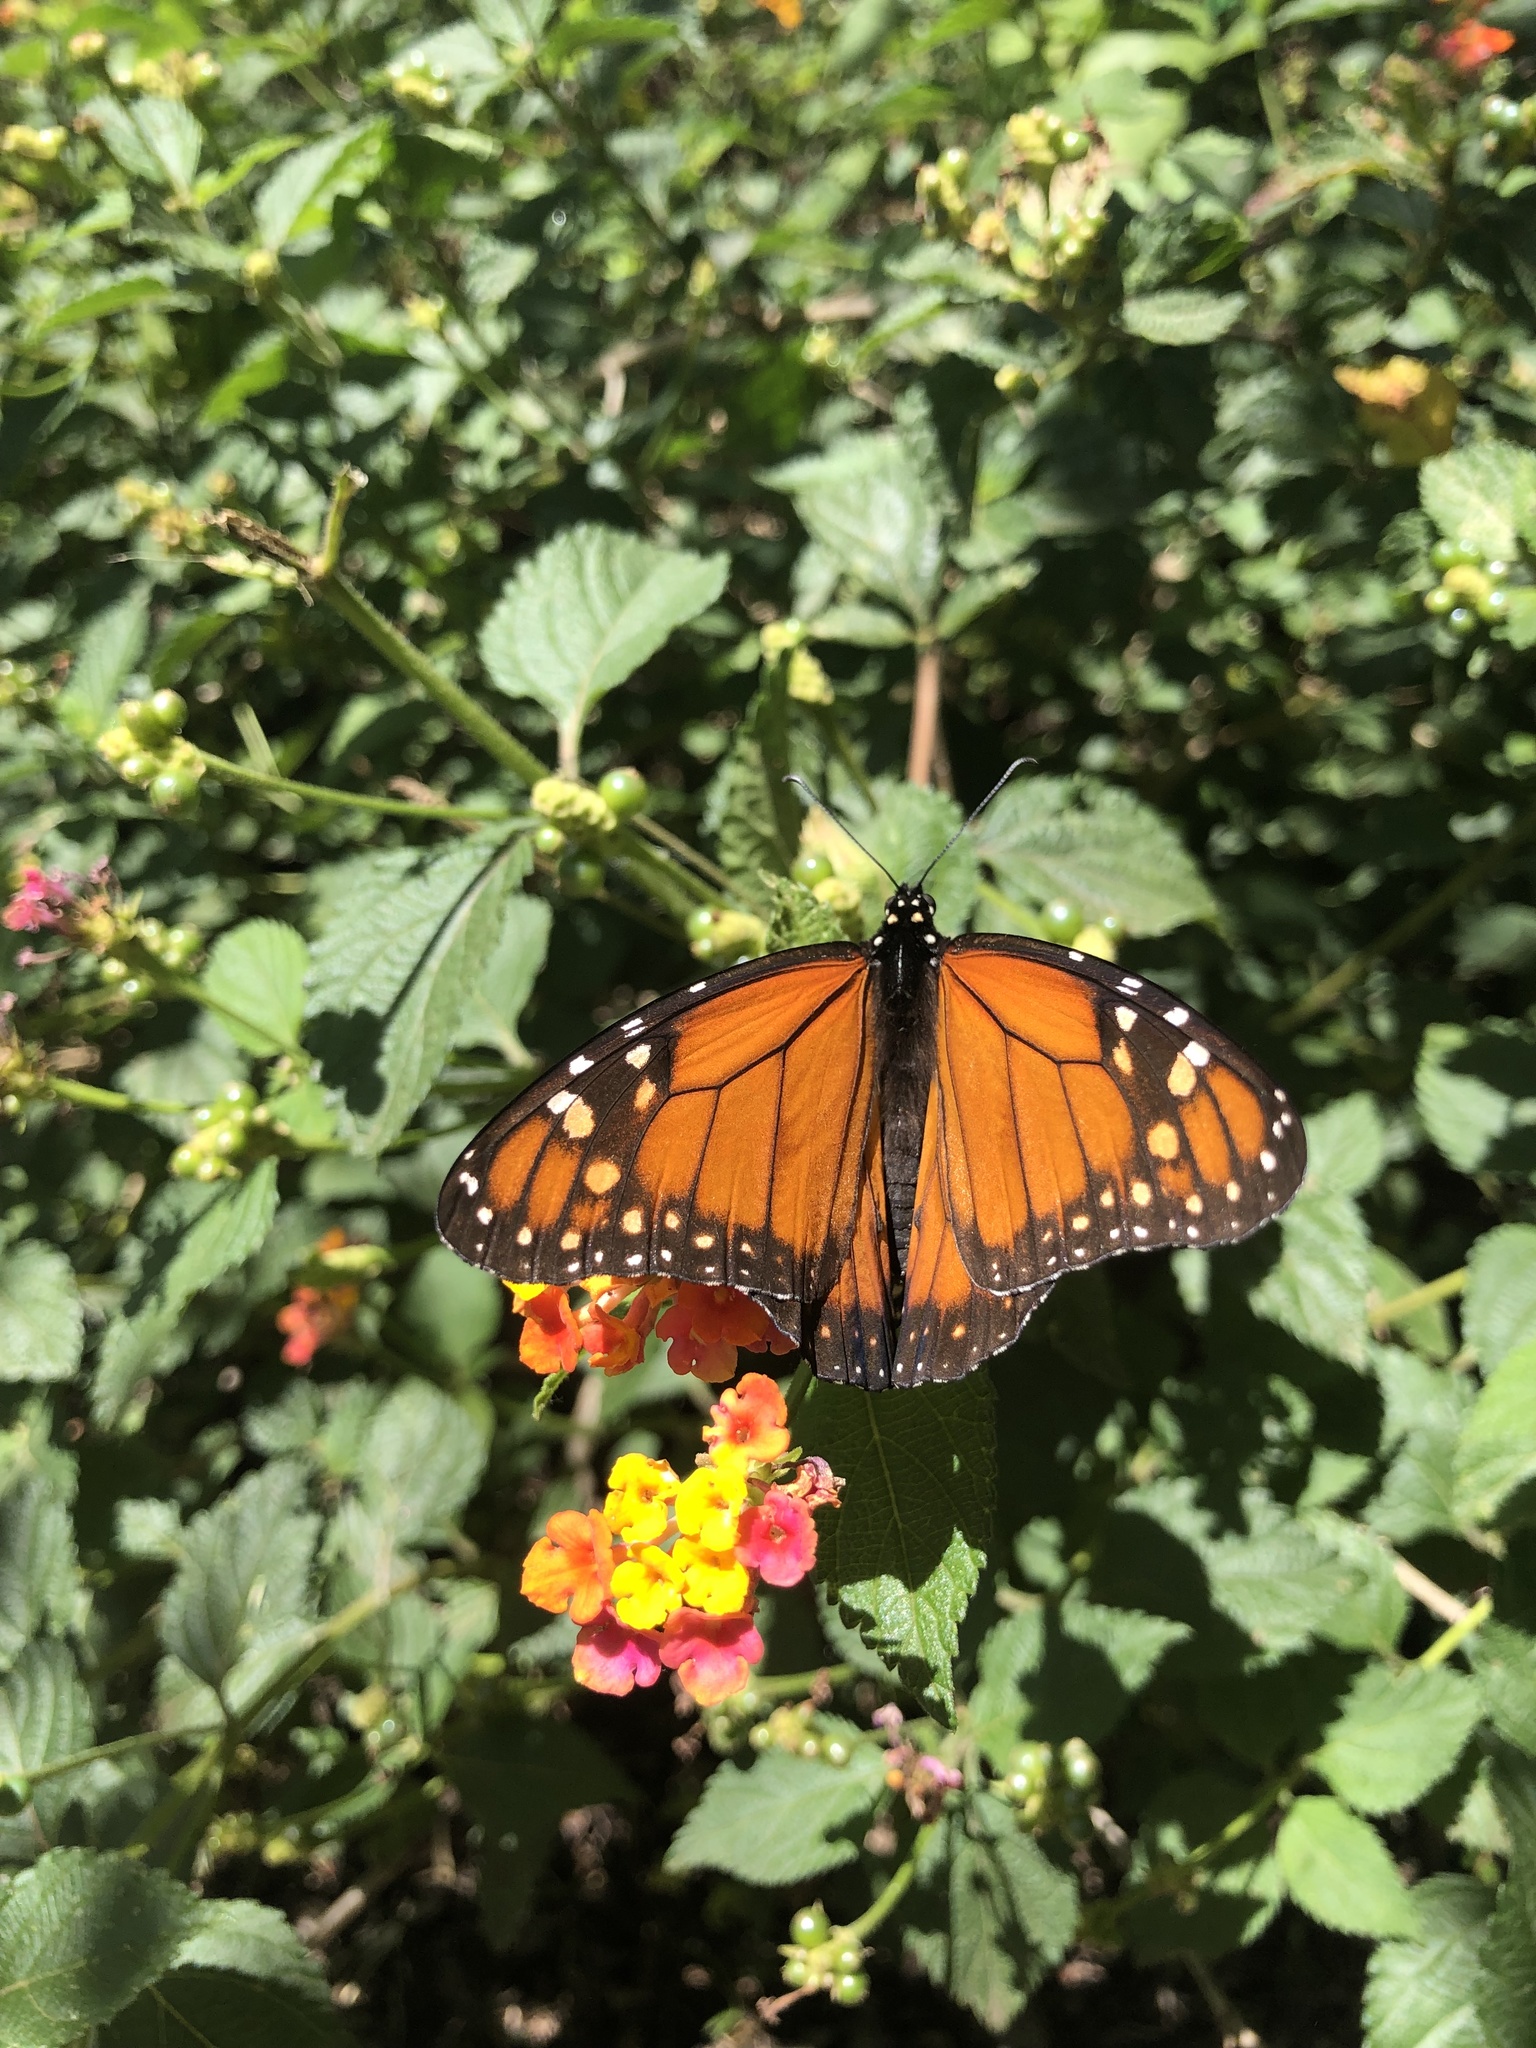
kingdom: Animalia
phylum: Arthropoda
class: Insecta
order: Lepidoptera
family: Nymphalidae
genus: Danaus
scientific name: Danaus erippus
